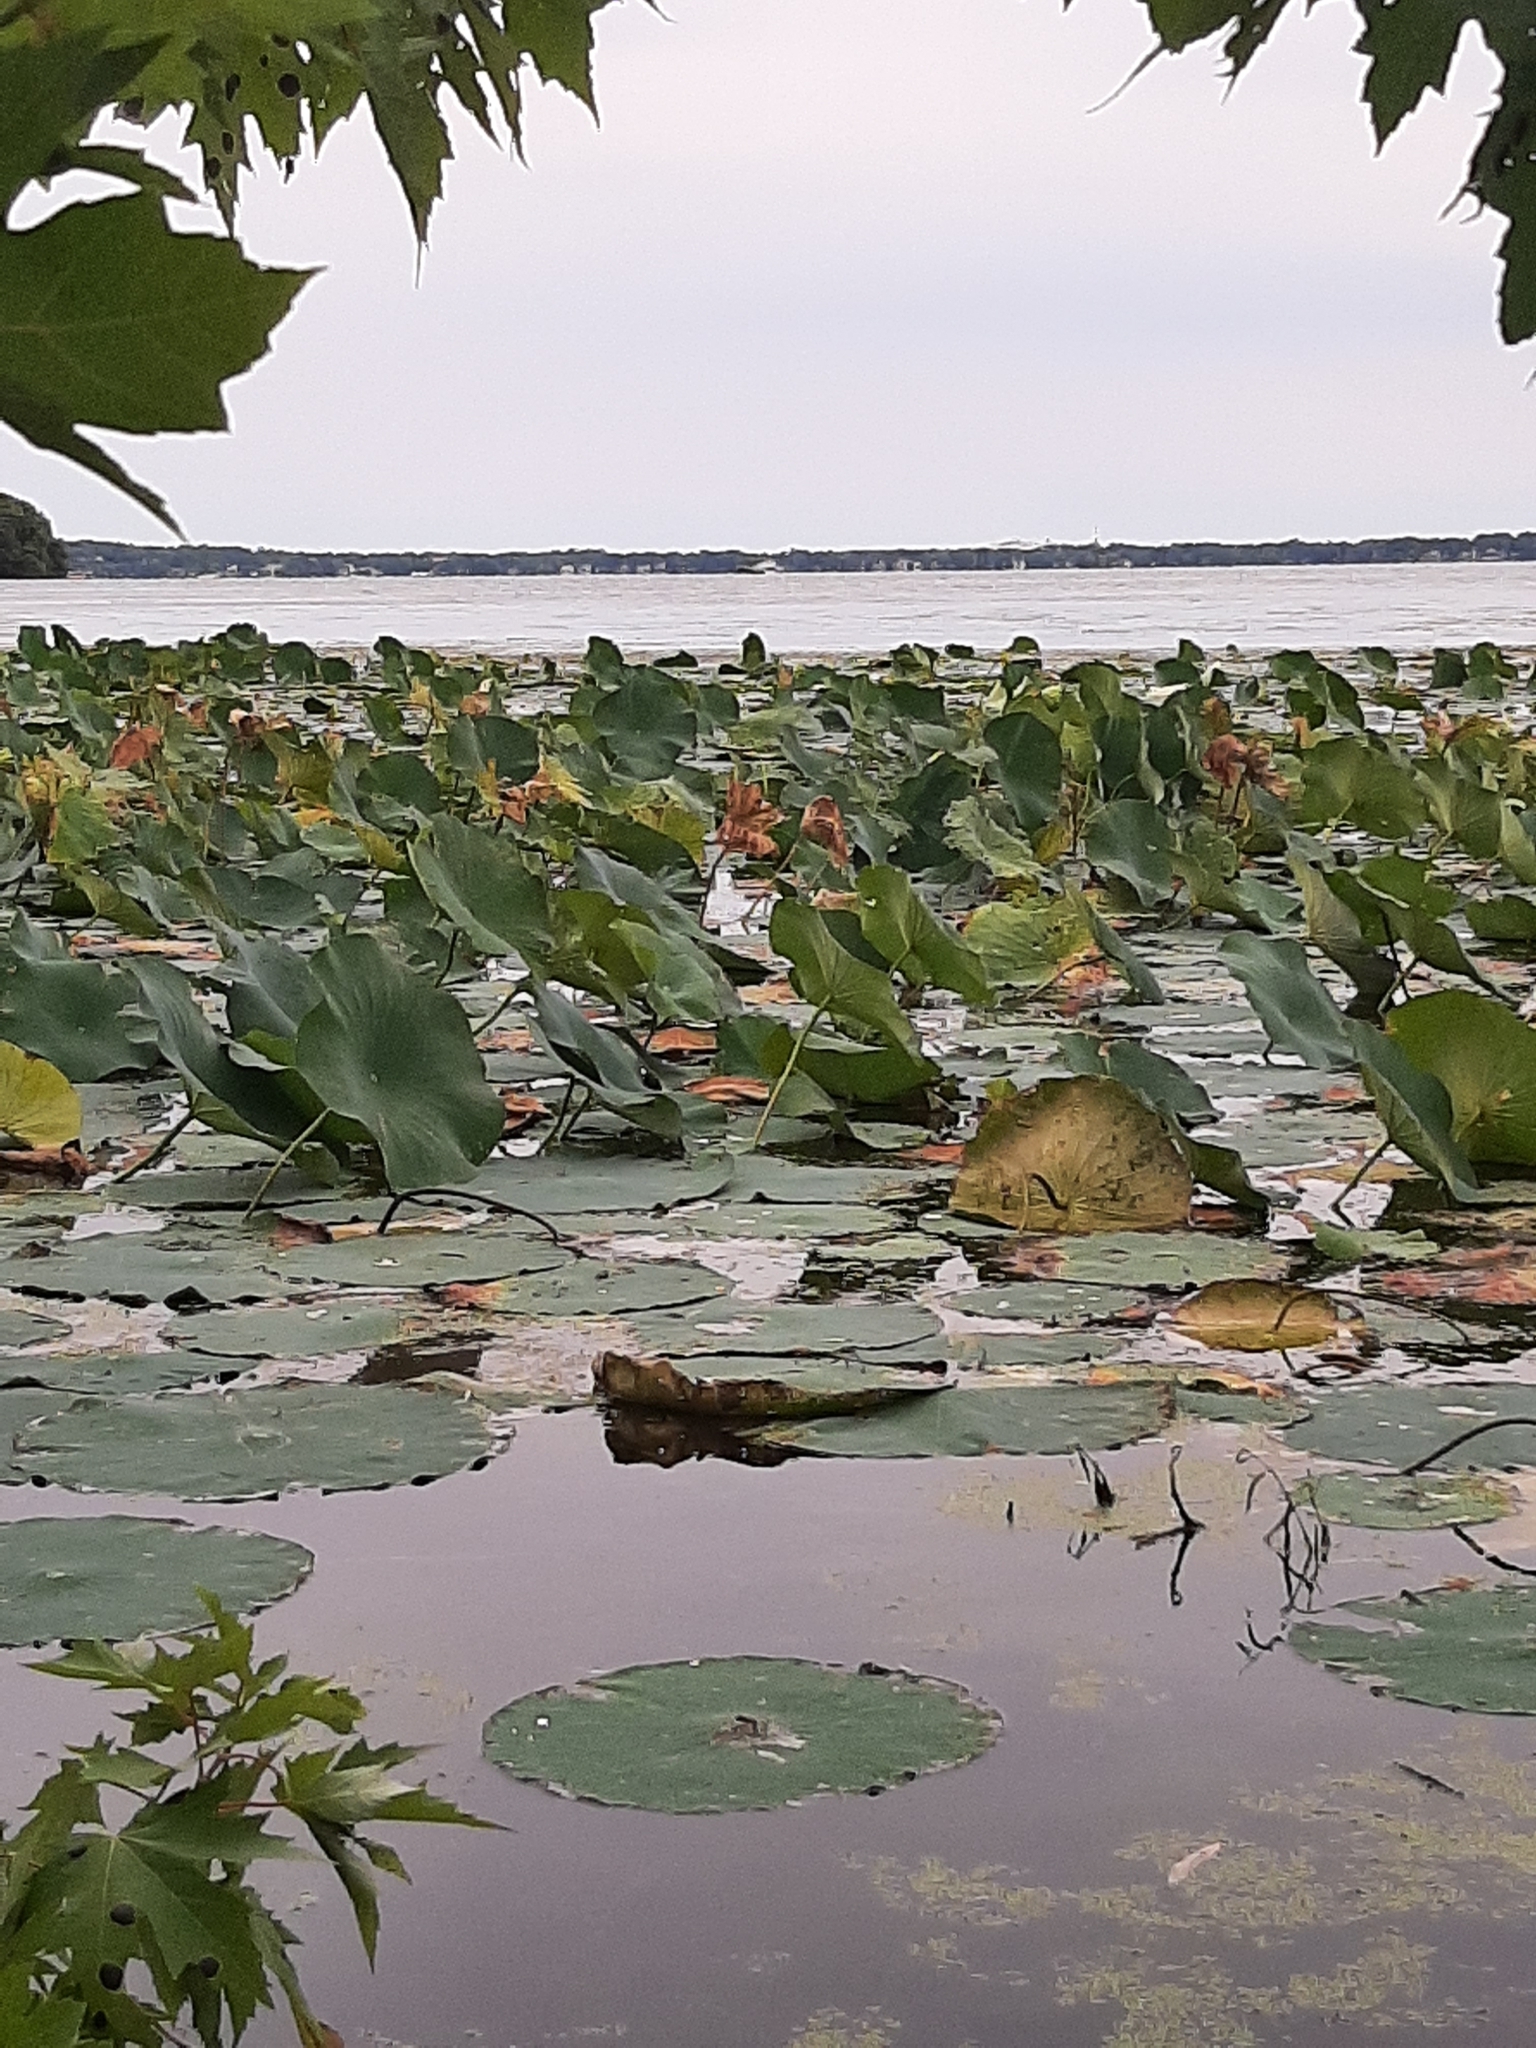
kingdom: Plantae
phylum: Tracheophyta
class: Magnoliopsida
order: Proteales
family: Nelumbonaceae
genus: Nelumbo
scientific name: Nelumbo lutea
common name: American lotus
